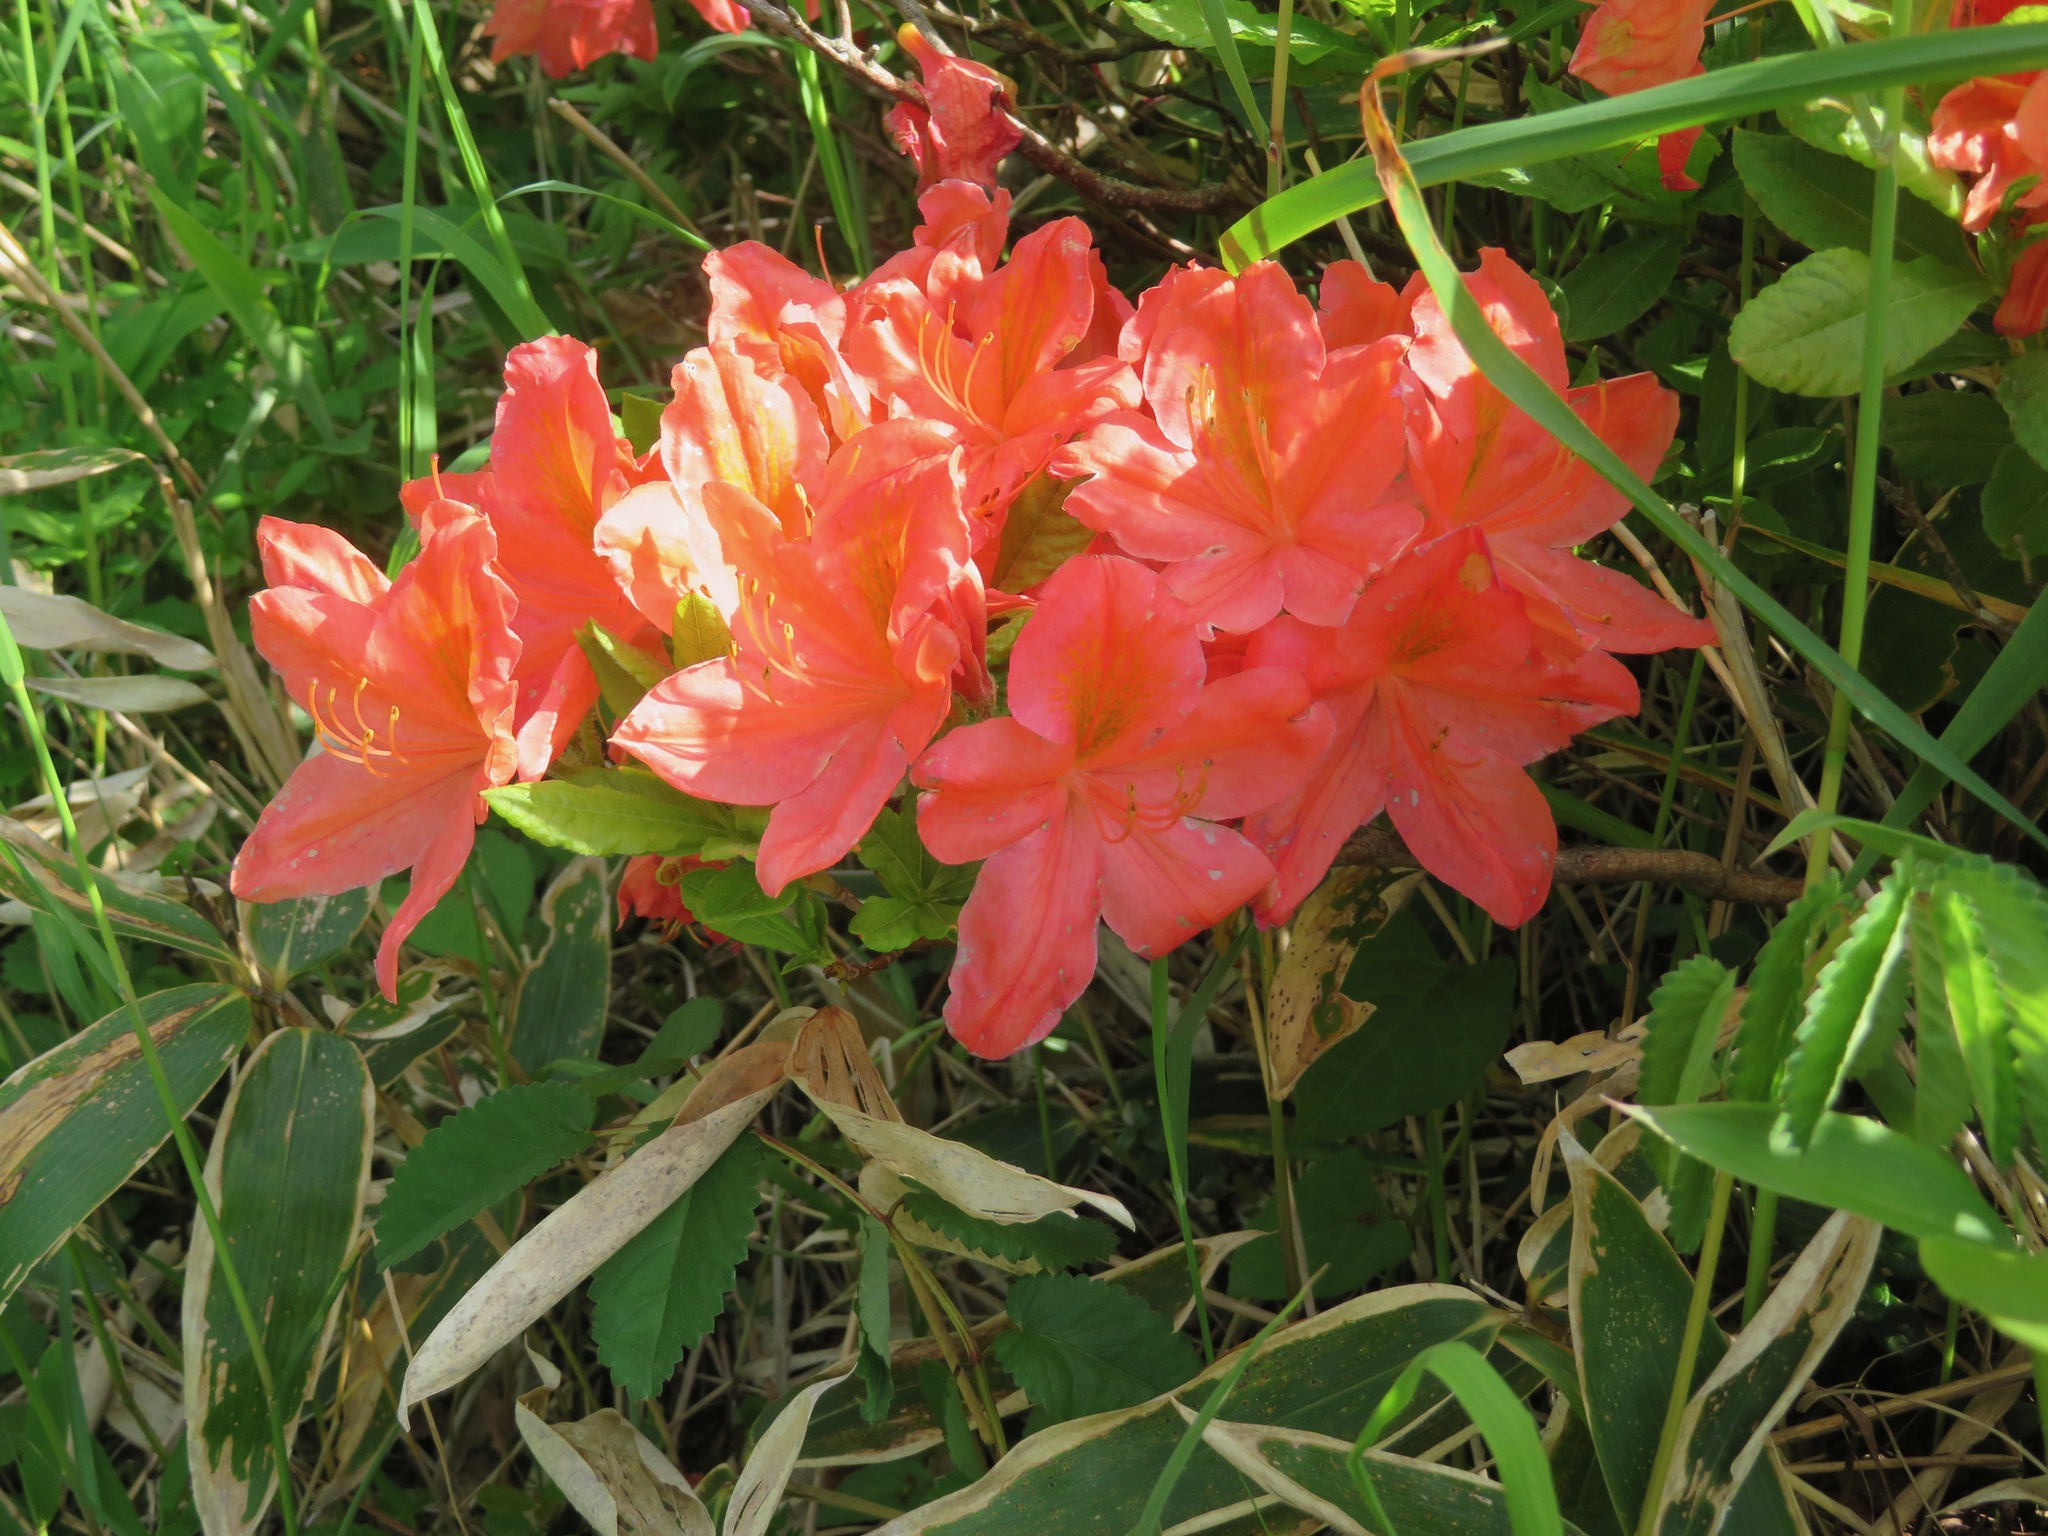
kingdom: Plantae
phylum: Tracheophyta
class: Magnoliopsida
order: Ericales
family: Ericaceae
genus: Rhododendron
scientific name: Rhododendron japonicum
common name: Japanese azalea
